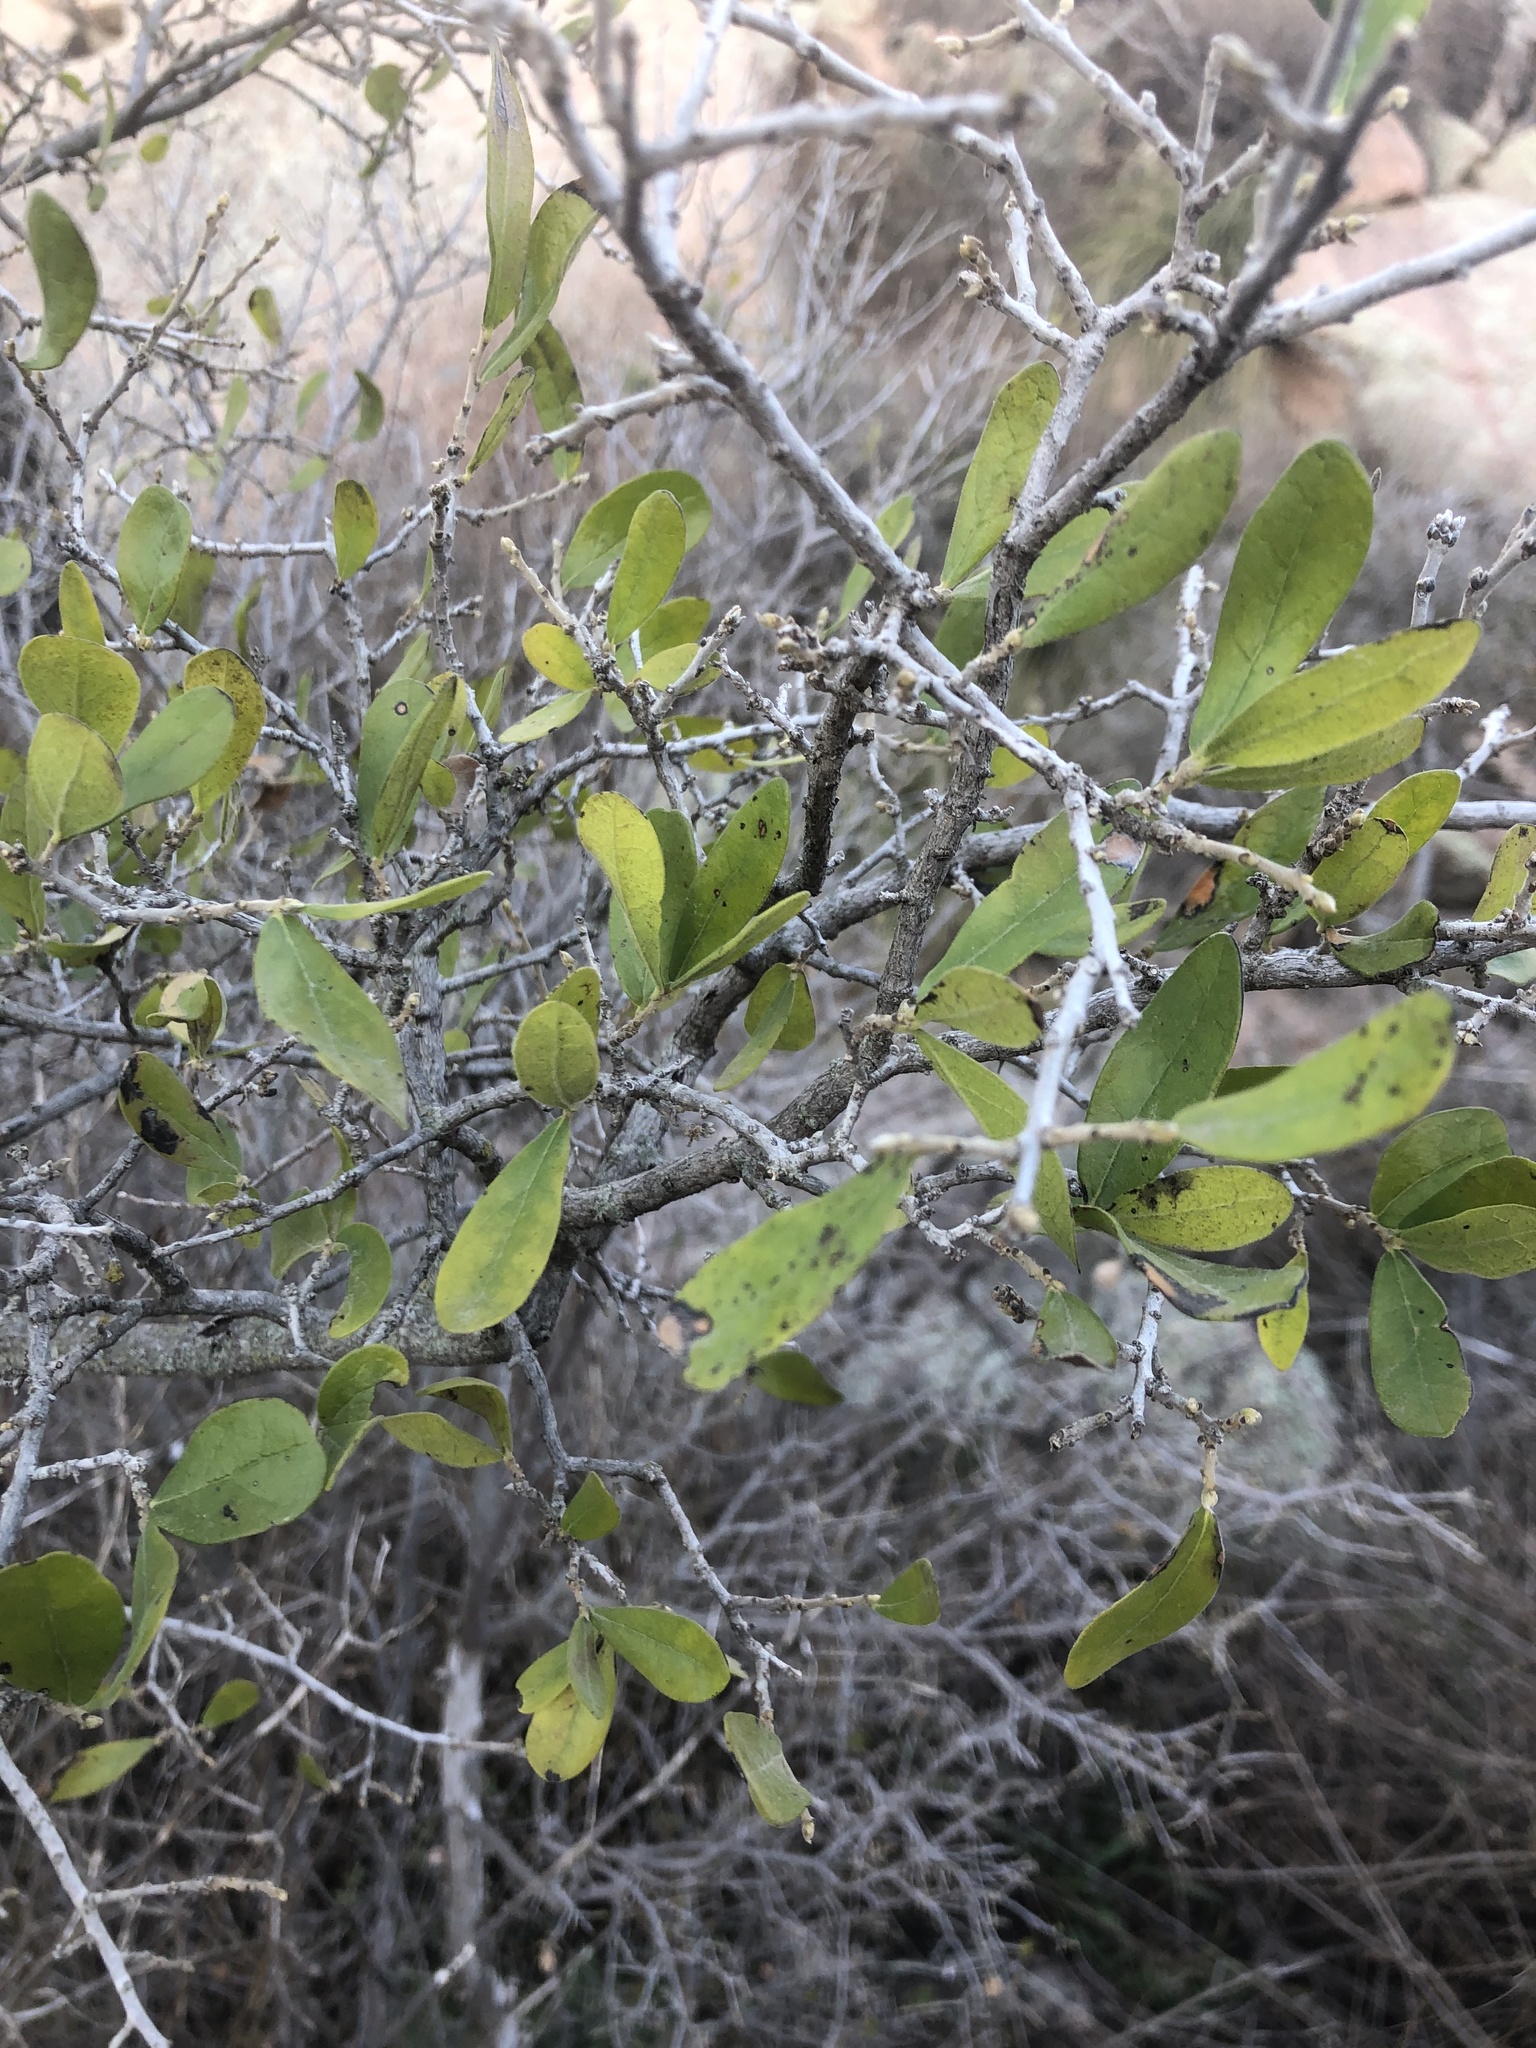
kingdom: Plantae
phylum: Tracheophyta
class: Magnoliopsida
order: Ericales
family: Ebenaceae
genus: Diospyros
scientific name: Diospyros texana
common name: Texas persimmon
